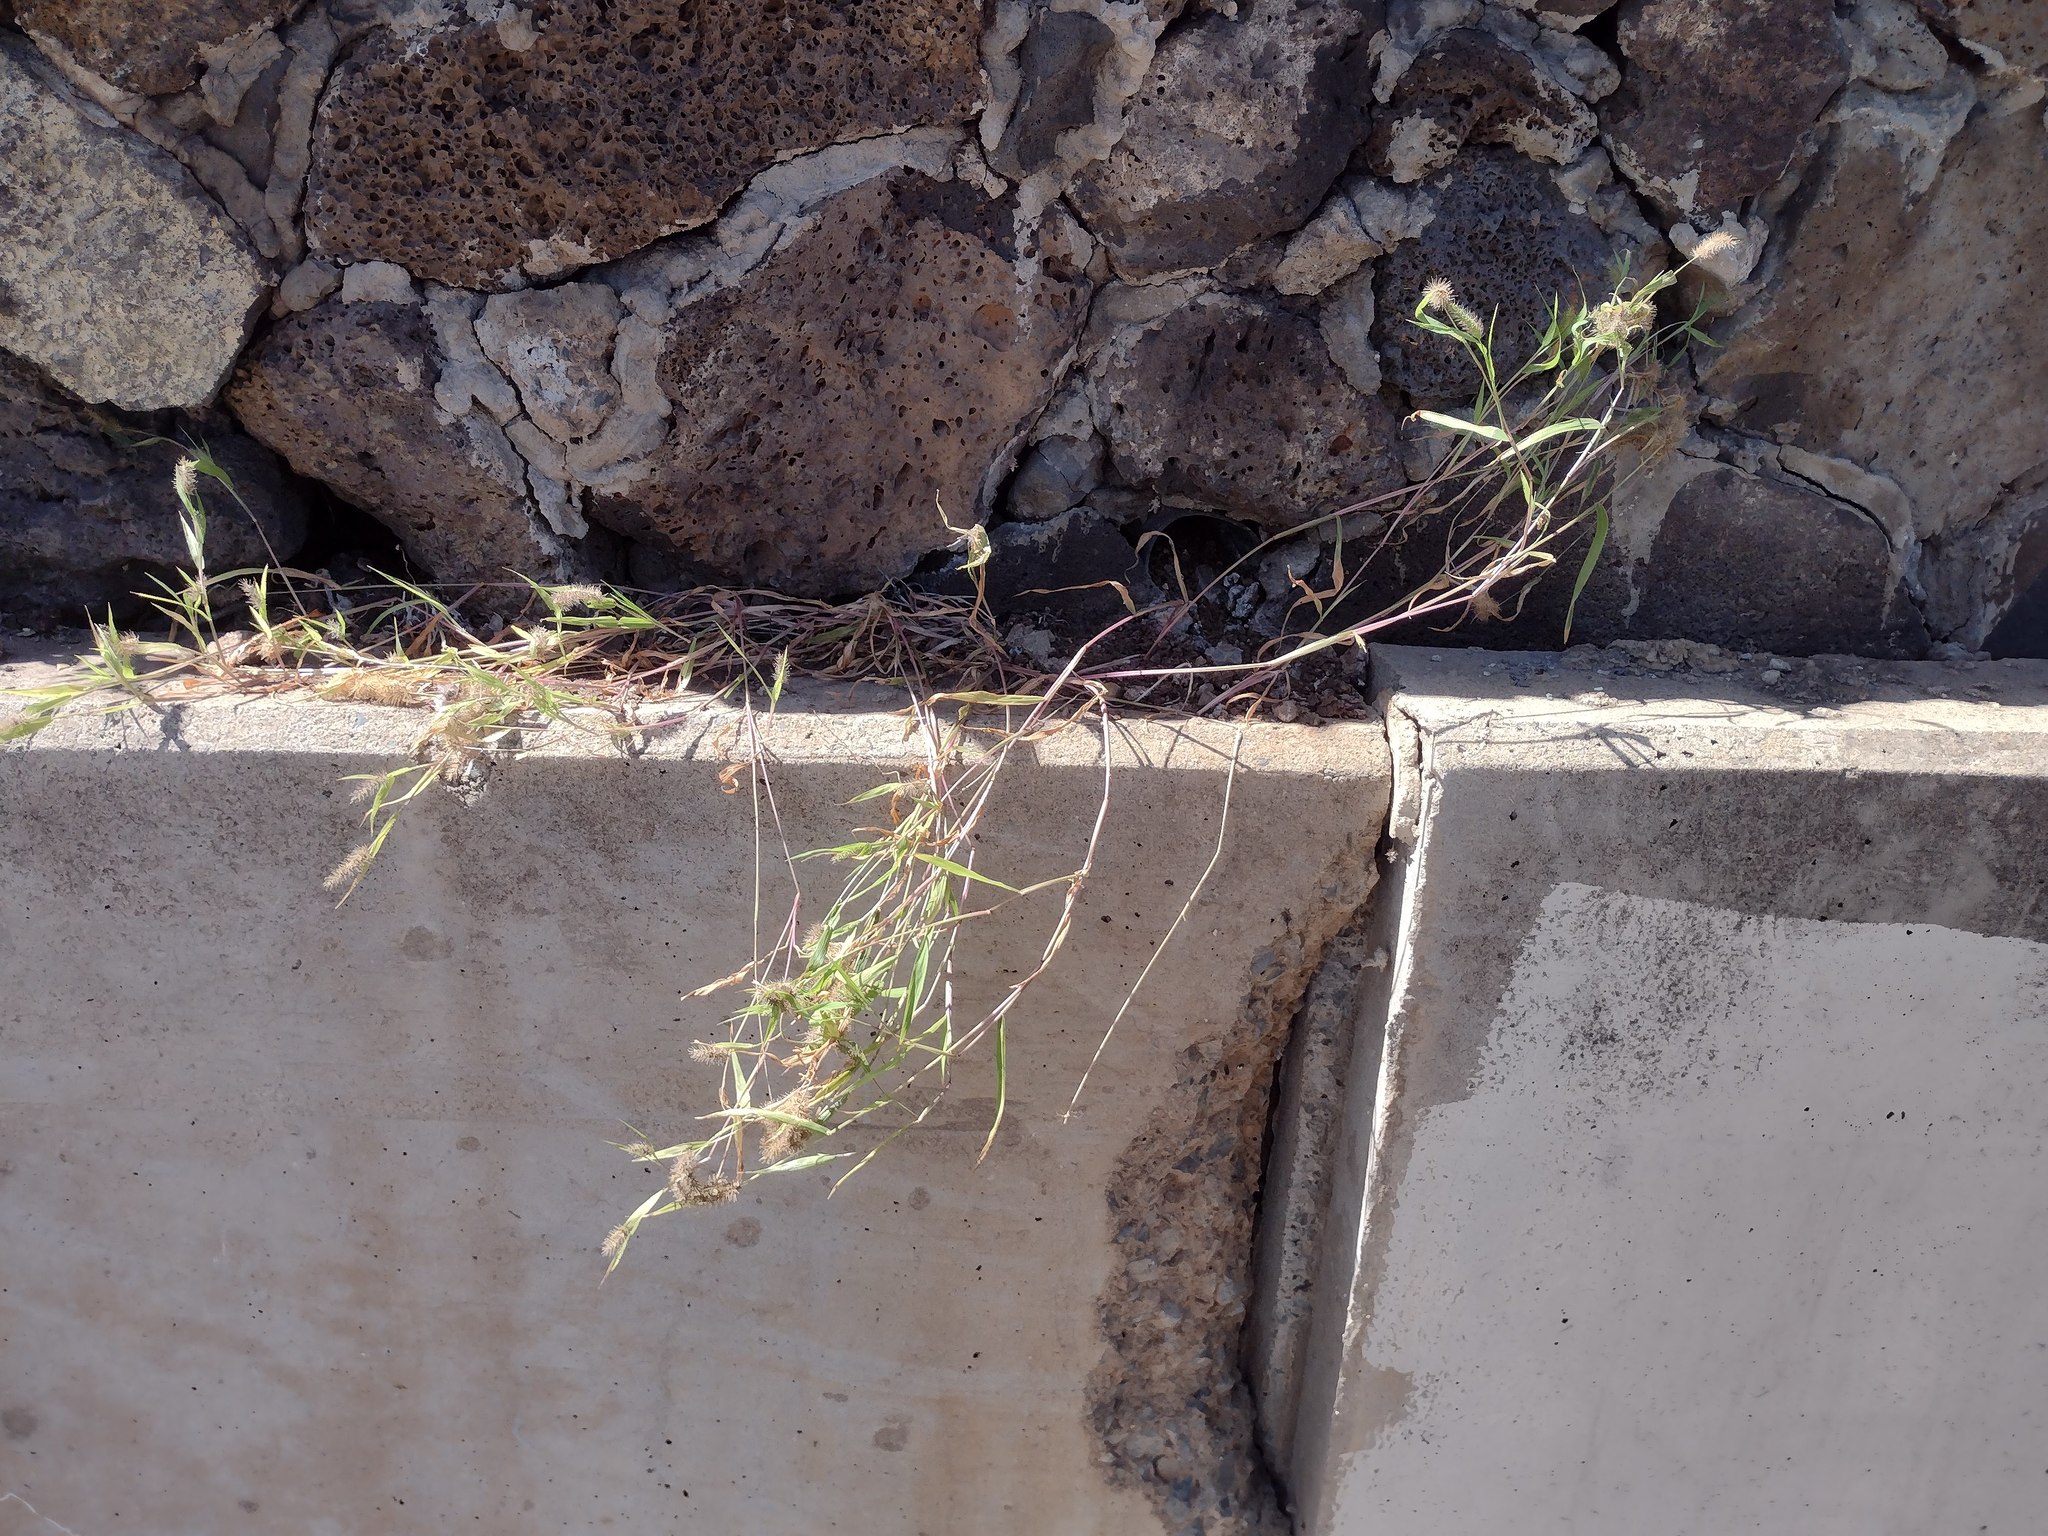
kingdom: Plantae
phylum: Tracheophyta
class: Liliopsida
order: Poales
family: Poaceae
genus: Setaria
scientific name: Setaria adhaerens
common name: Adherent bristle-grass
